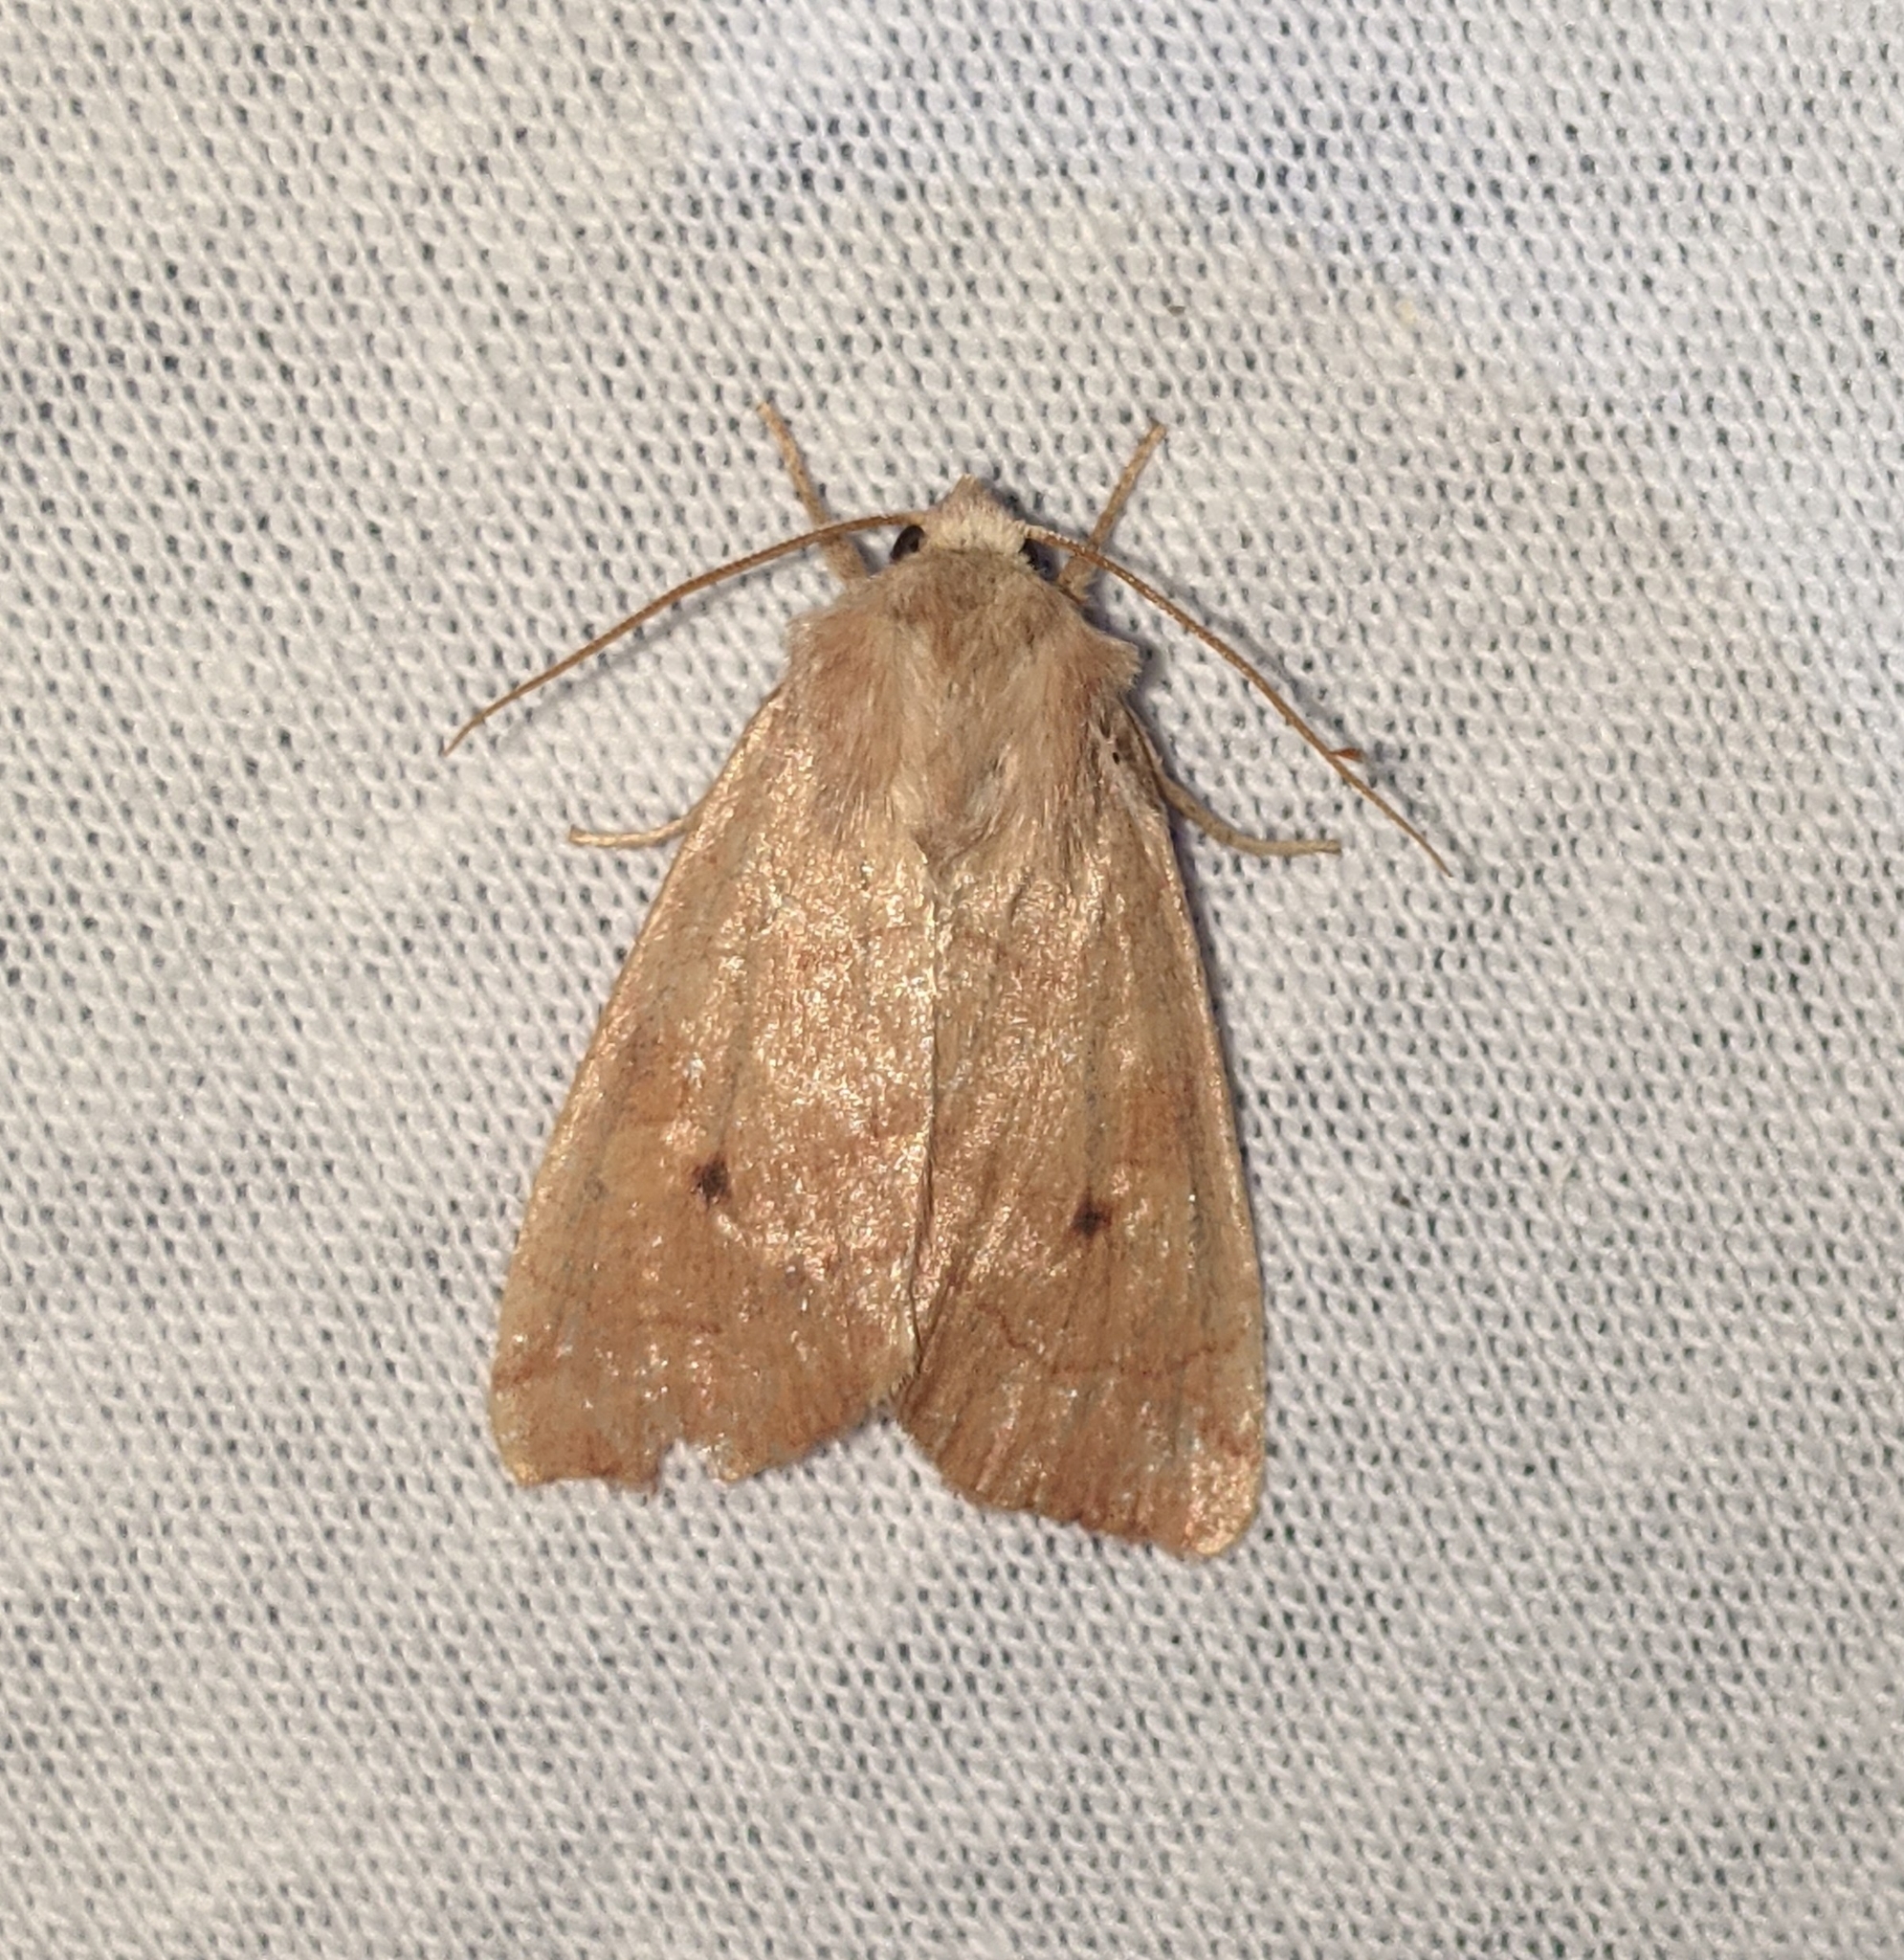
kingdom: Animalia
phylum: Arthropoda
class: Insecta
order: Lepidoptera
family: Noctuidae
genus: Enargia
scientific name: Enargia infumata
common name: Smoked sallow
